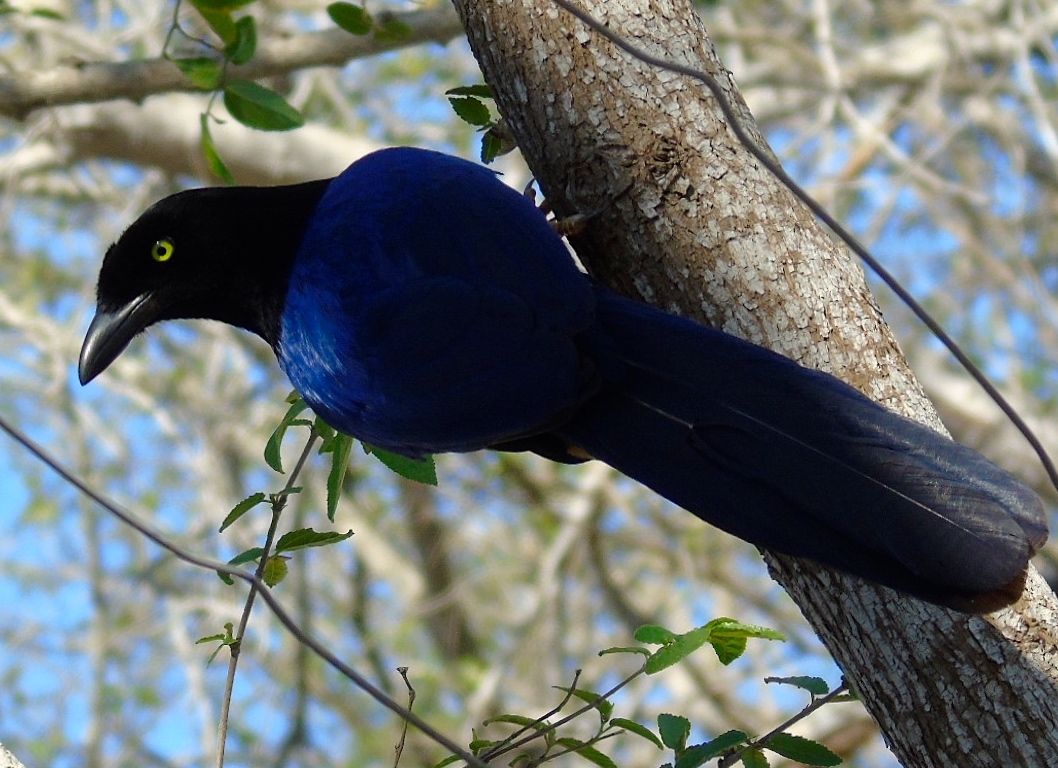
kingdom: Animalia
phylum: Chordata
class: Aves
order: Passeriformes
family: Corvidae
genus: Cyanocorax
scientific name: Cyanocorax beecheii
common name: Purplish-backed jay
